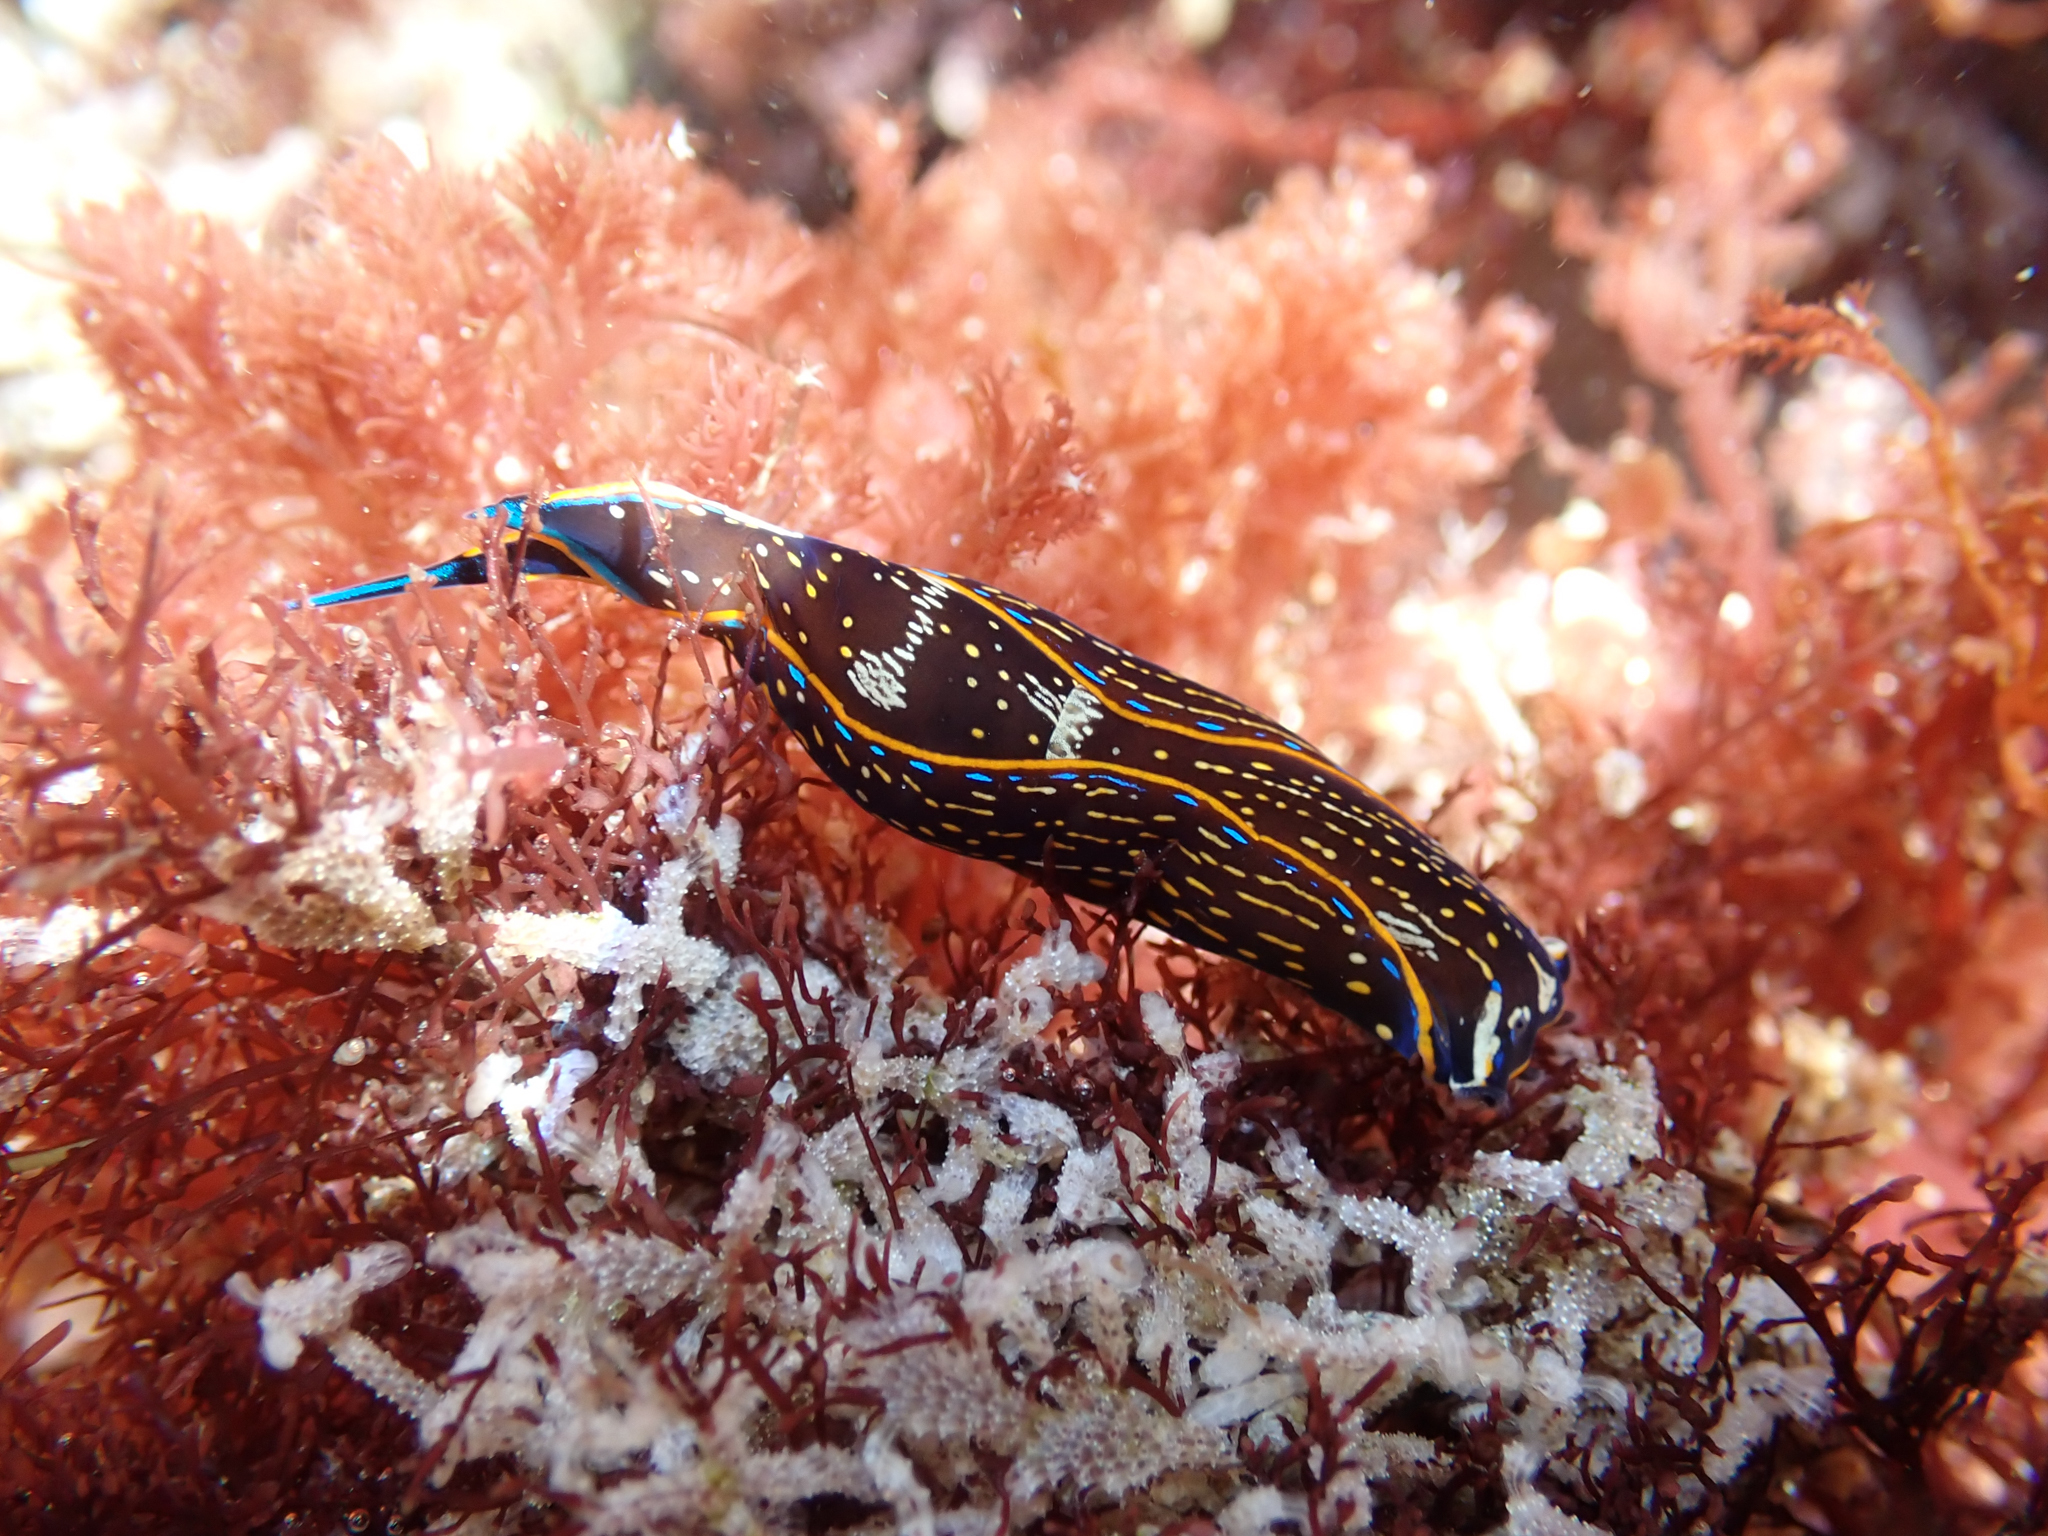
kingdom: Animalia
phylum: Mollusca
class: Gastropoda
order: Cephalaspidea
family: Aglajidae
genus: Navanax
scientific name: Navanax inermis
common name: California aglaja
